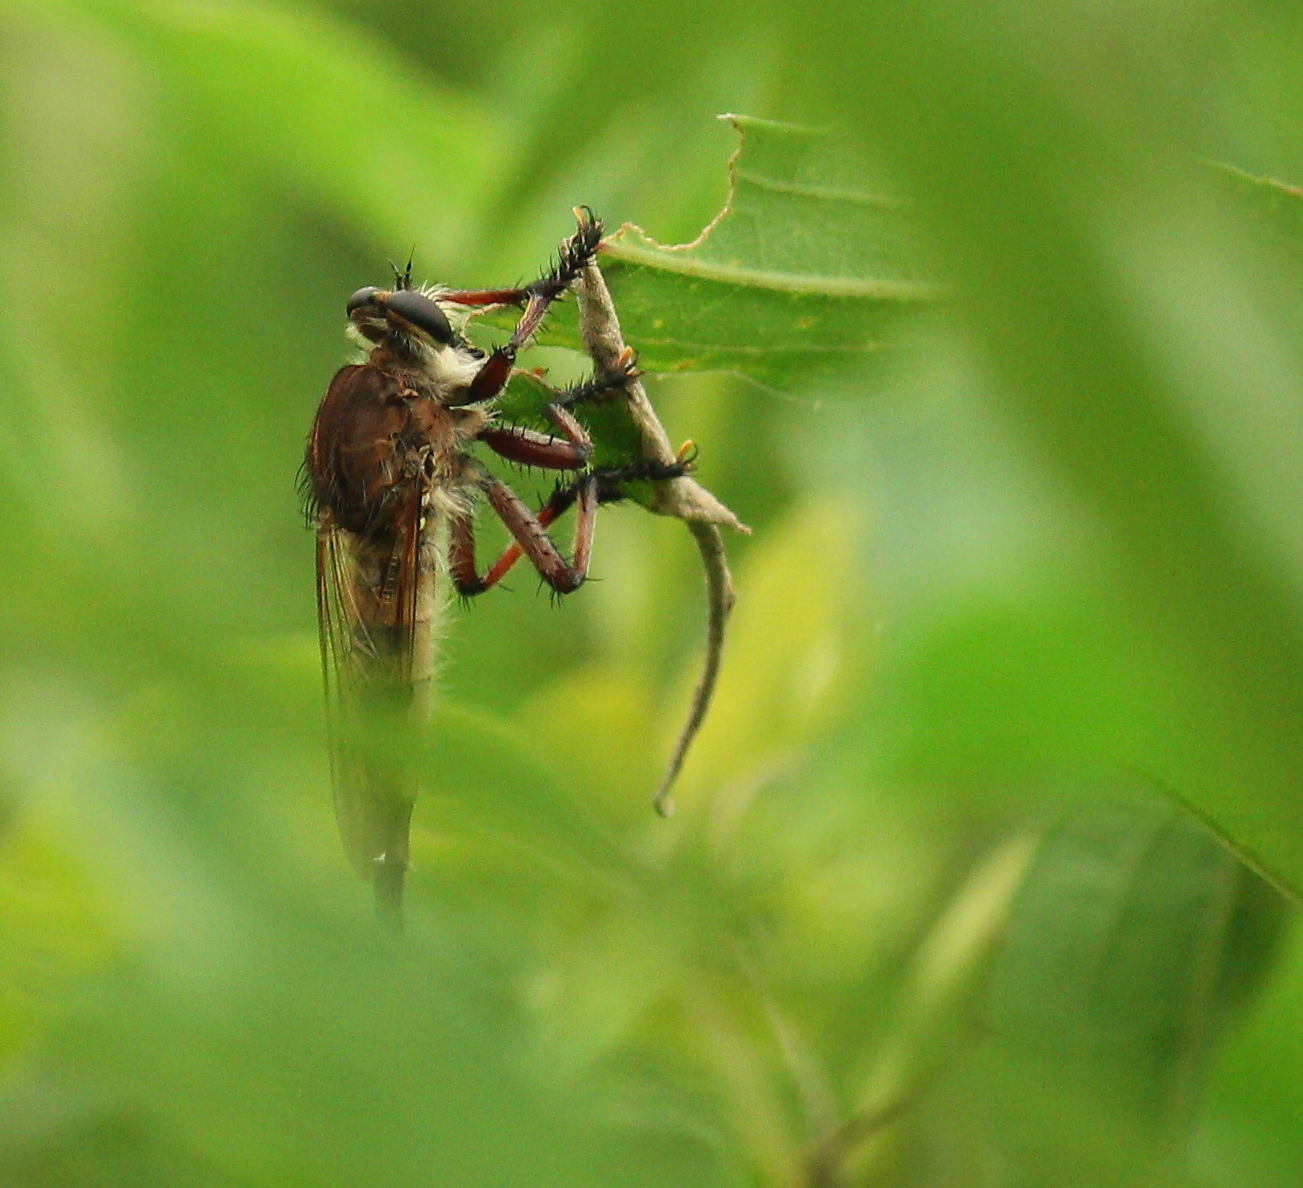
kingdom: Animalia
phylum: Arthropoda
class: Insecta
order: Diptera
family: Asilidae
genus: Promachus
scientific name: Promachus hinei
